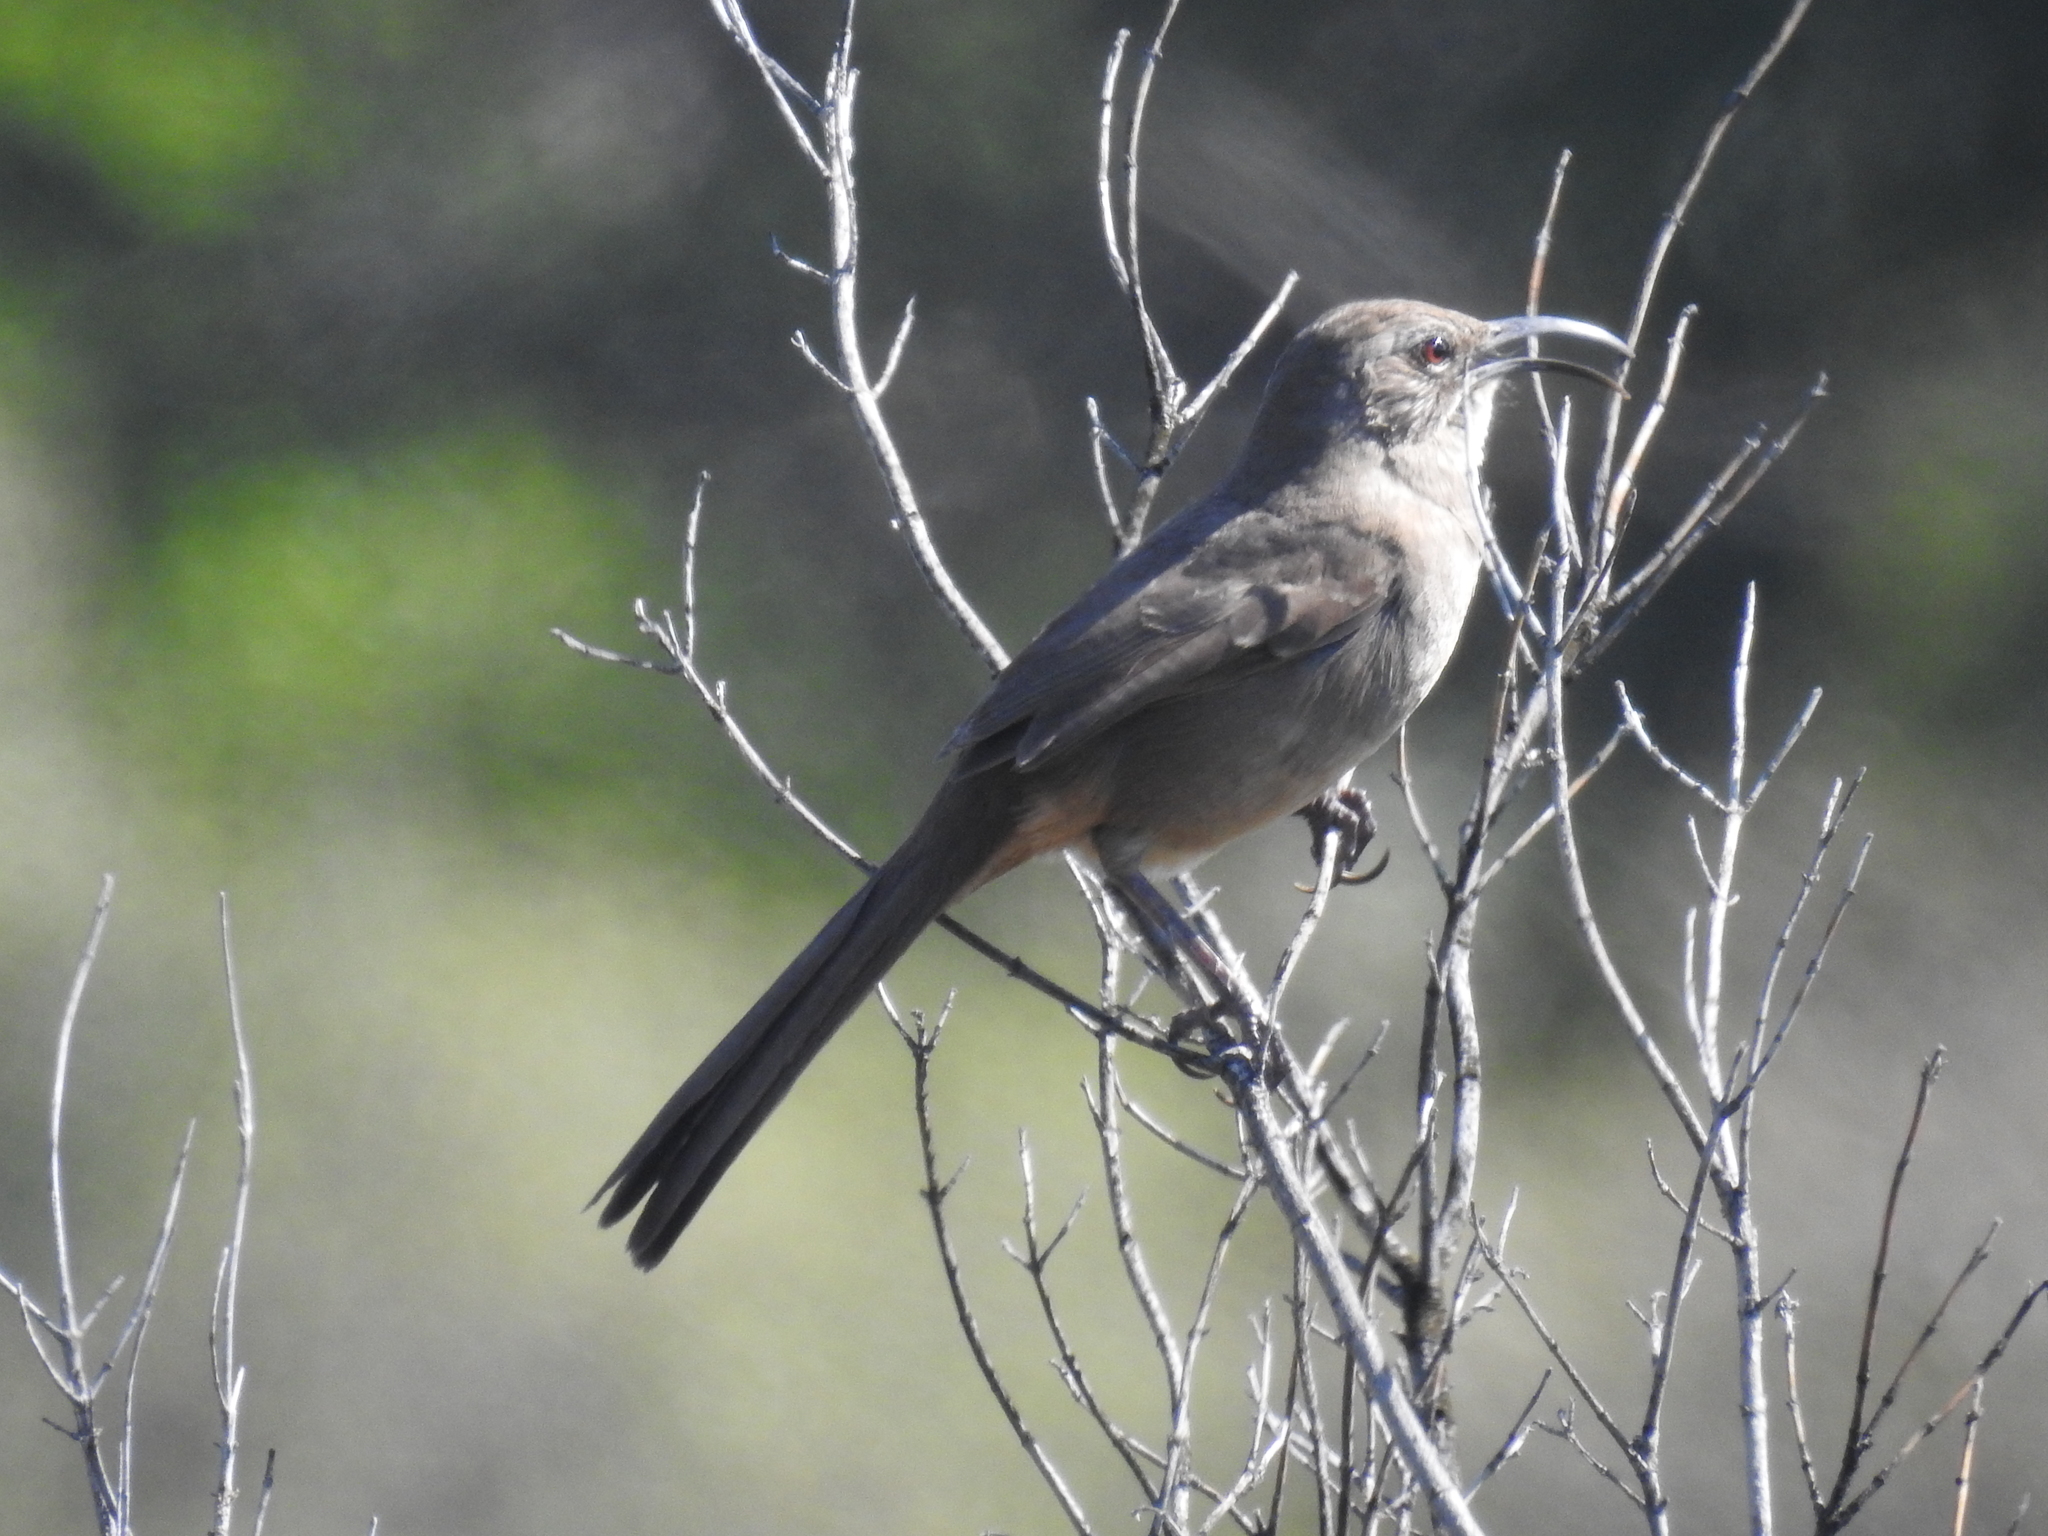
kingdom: Animalia
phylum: Chordata
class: Aves
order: Passeriformes
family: Mimidae
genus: Toxostoma
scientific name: Toxostoma redivivum
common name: California thrasher
